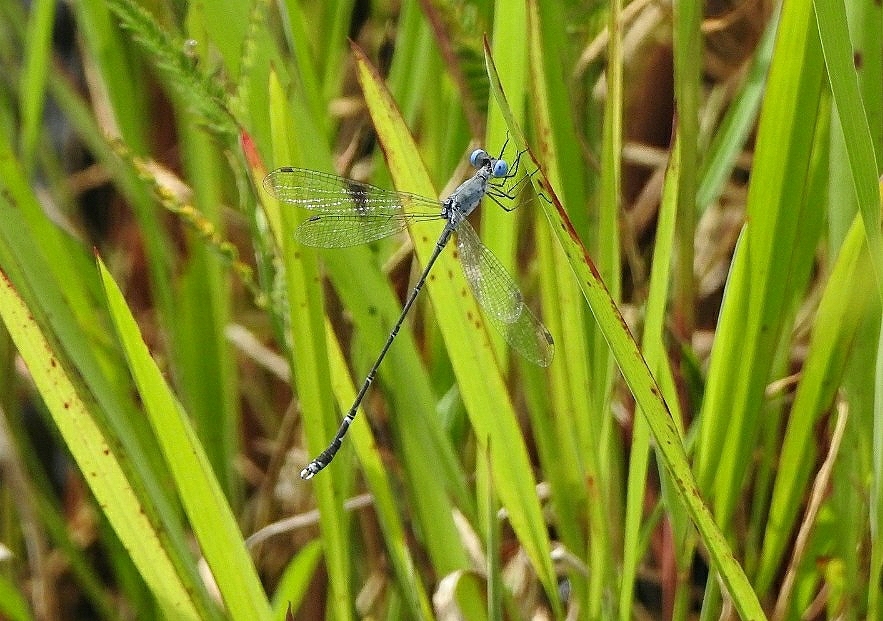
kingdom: Animalia
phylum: Arthropoda
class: Insecta
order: Odonata
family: Lestidae
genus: Lestes
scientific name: Lestes praemorsus
